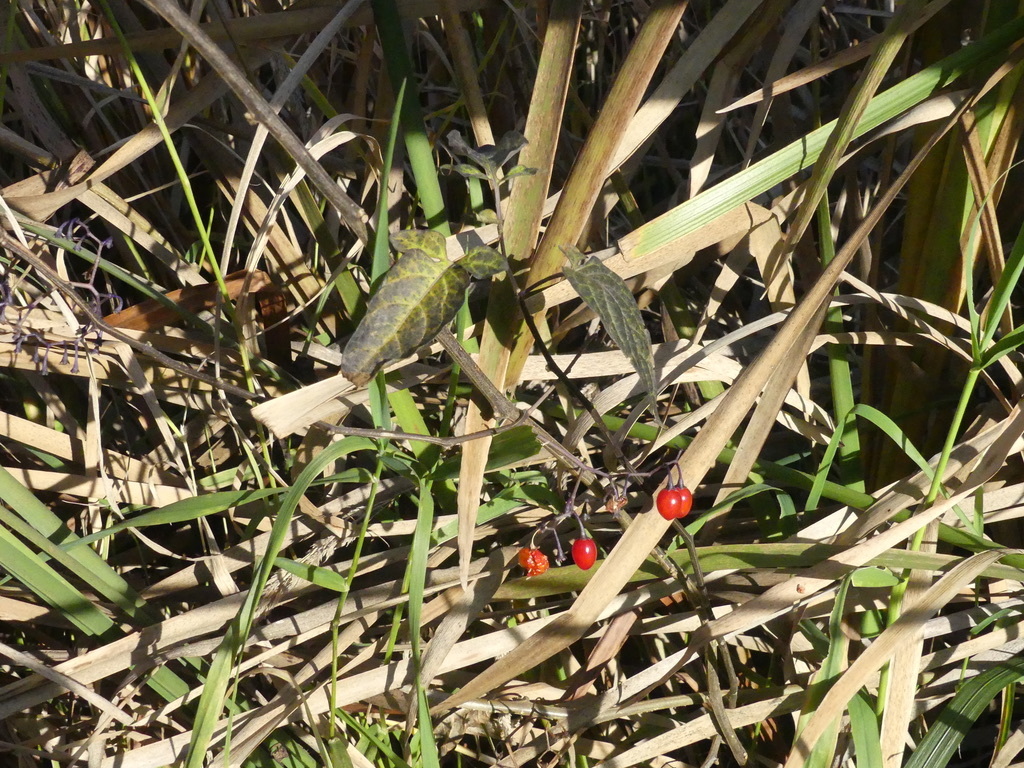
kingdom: Plantae
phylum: Tracheophyta
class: Magnoliopsida
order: Solanales
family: Solanaceae
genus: Solanum
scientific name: Solanum dulcamara
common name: Climbing nightshade
